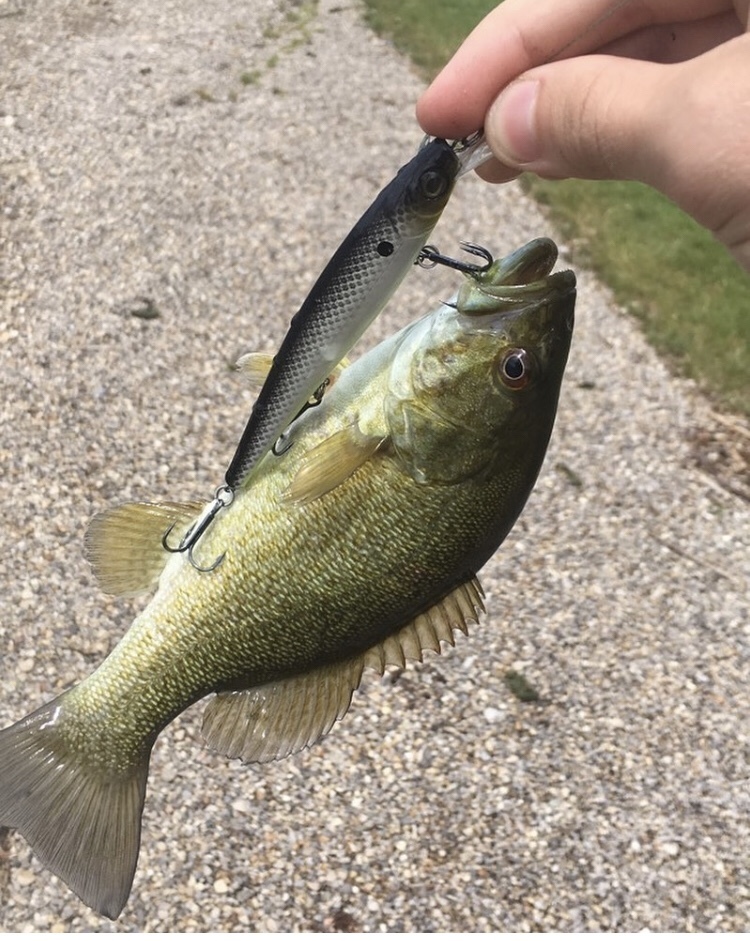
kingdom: Animalia
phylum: Chordata
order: Perciformes
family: Centrarchidae
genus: Micropterus
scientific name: Micropterus dolomieu
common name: Smallmouth bass
